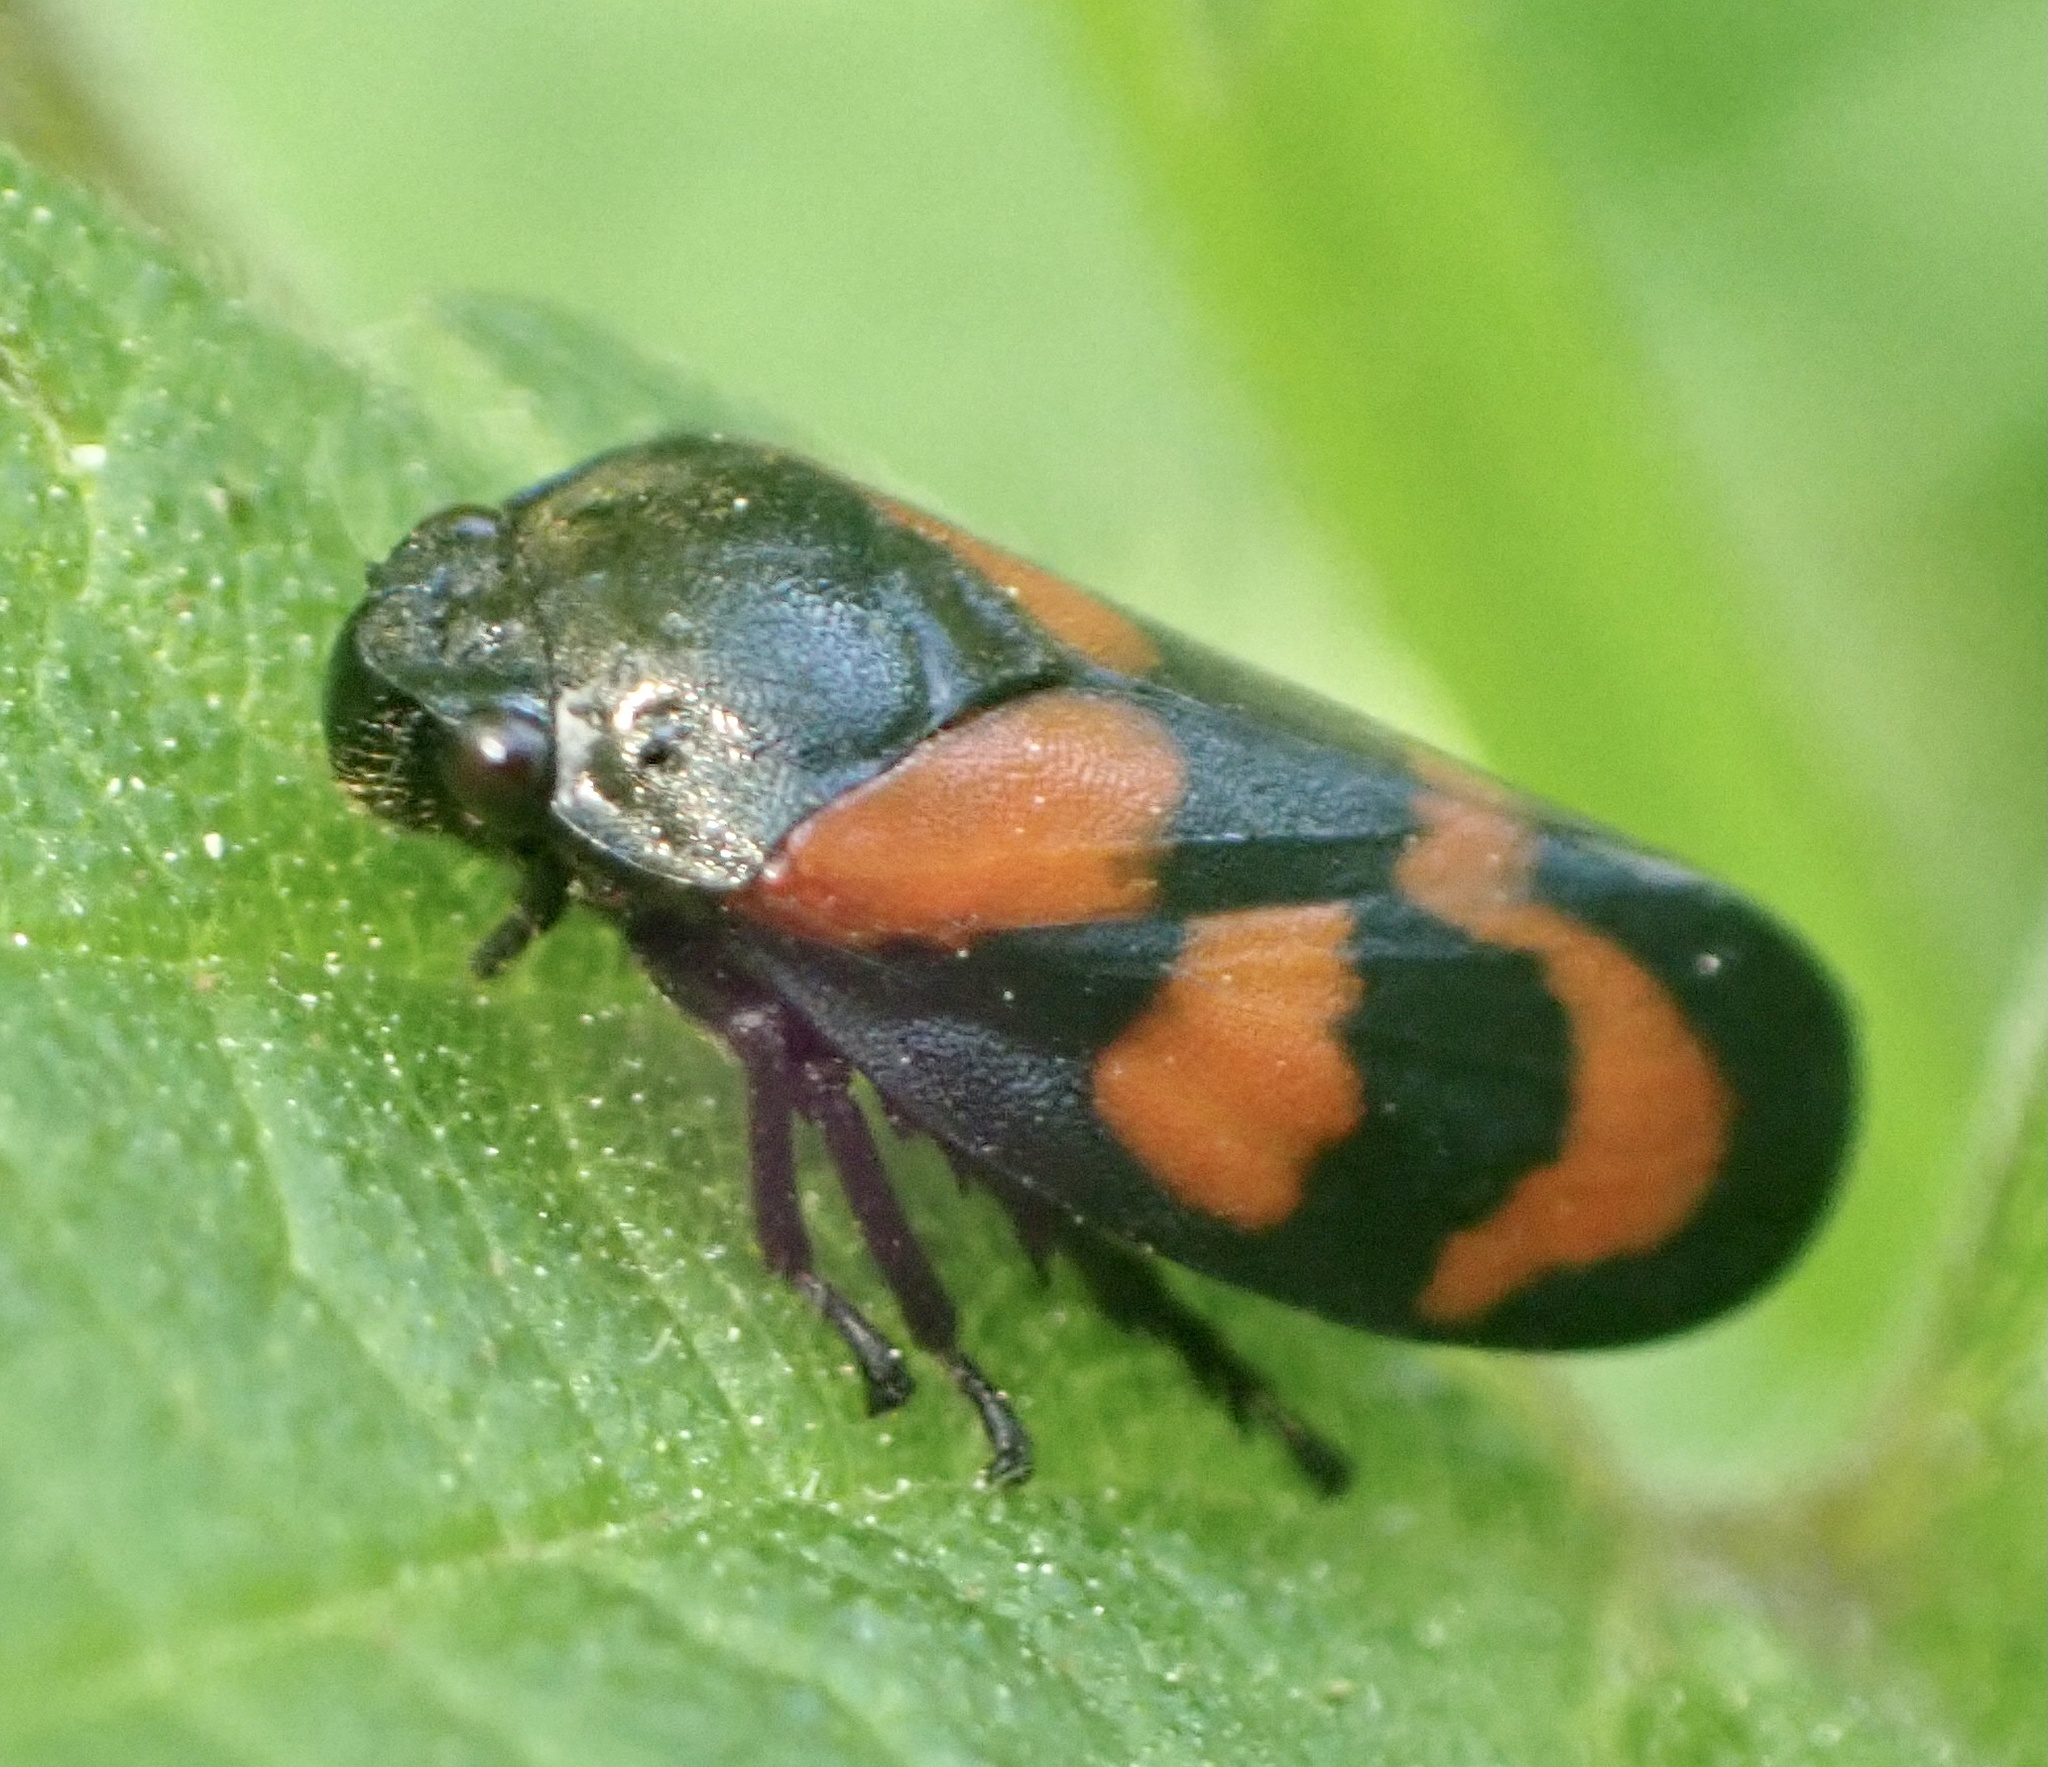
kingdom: Animalia
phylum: Arthropoda
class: Insecta
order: Hemiptera
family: Cercopidae
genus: Cercopis
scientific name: Cercopis vulnerata
